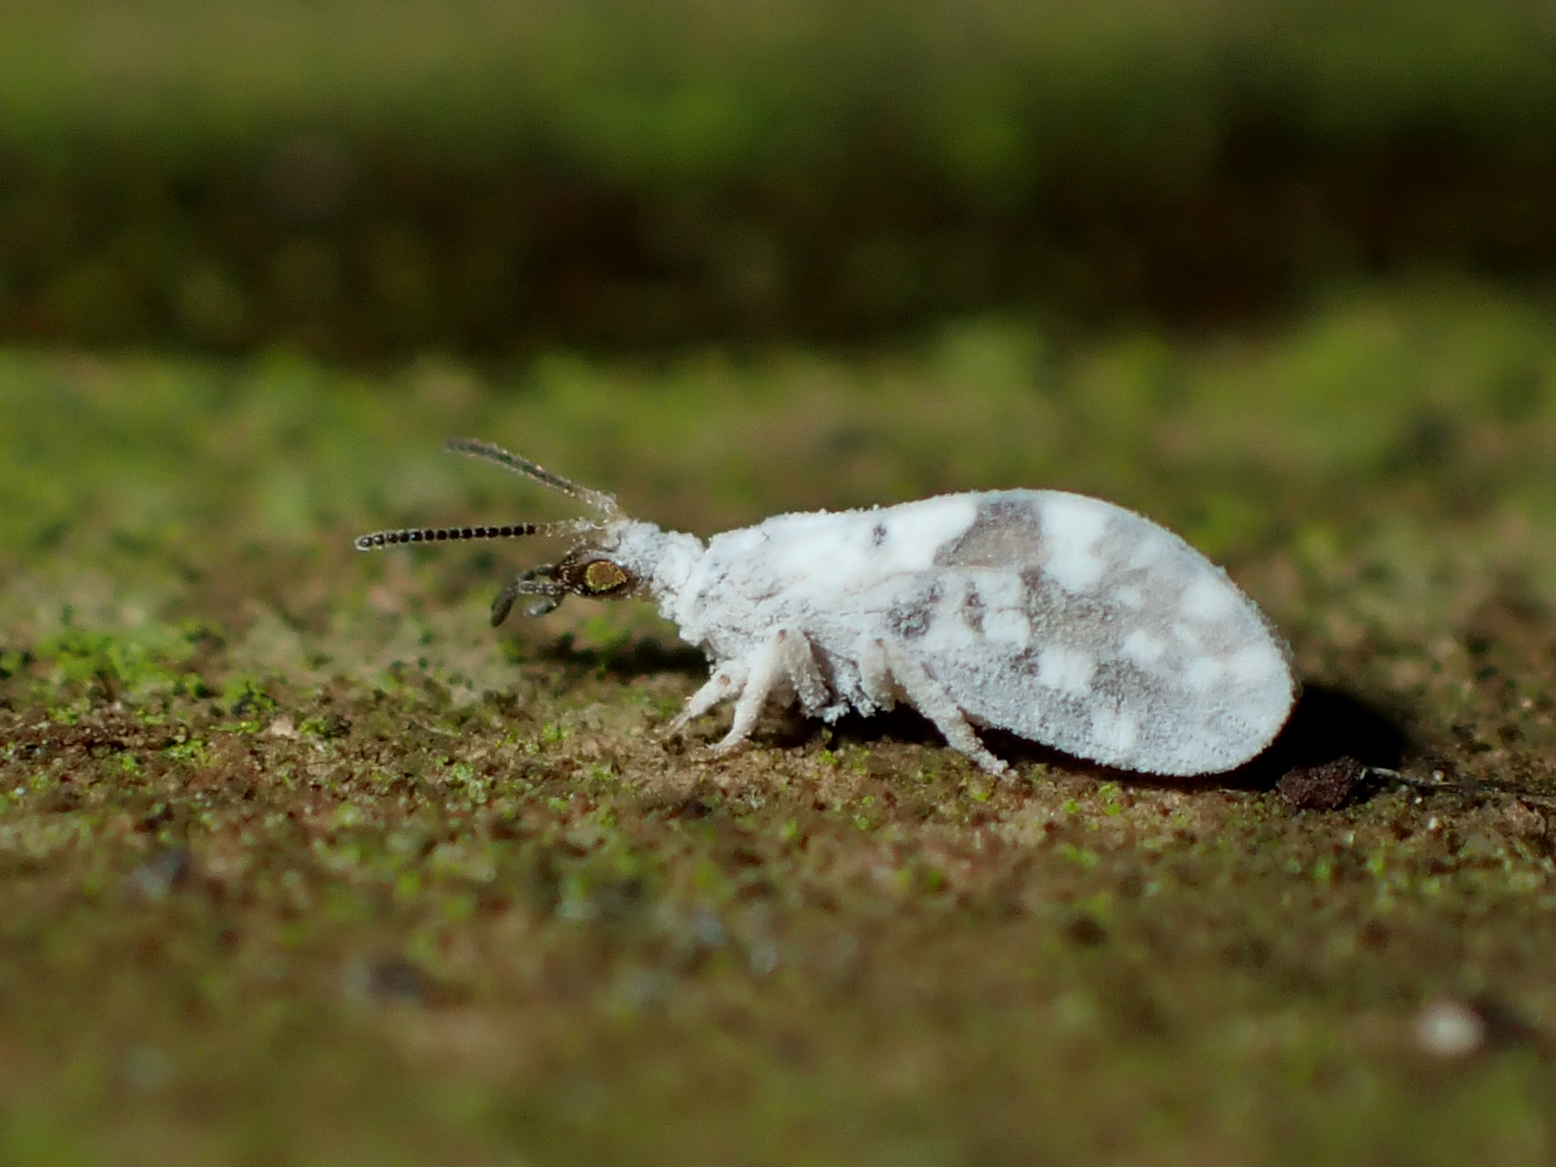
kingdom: Animalia
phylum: Arthropoda
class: Insecta
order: Neuroptera
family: Coniopterygidae
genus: Heteroconis
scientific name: Heteroconis ornata
